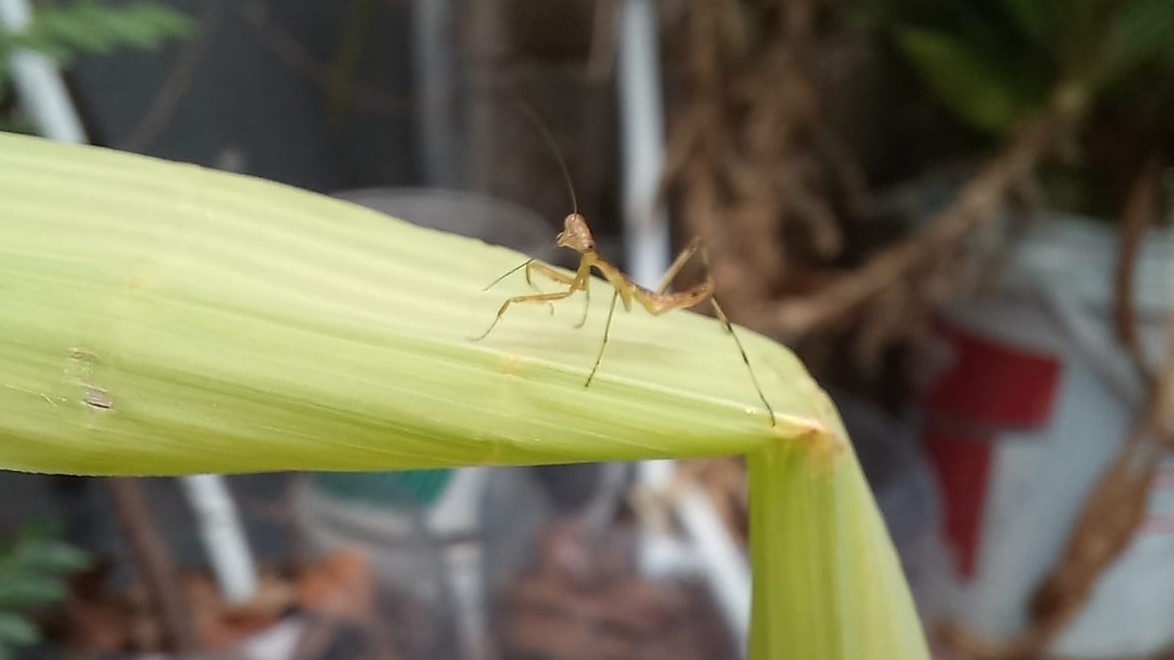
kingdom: Animalia
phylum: Arthropoda
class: Insecta
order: Mantodea
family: Mantidae
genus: Hierodula
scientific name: Hierodula venosa
